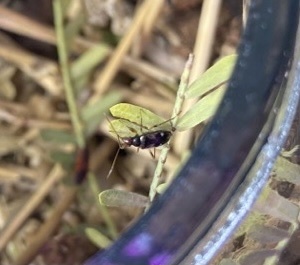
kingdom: Animalia
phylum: Arthropoda
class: Insecta
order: Hemiptera
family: Rhyparochromidae
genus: Pseudopamera
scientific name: Pseudopamera rubricata
